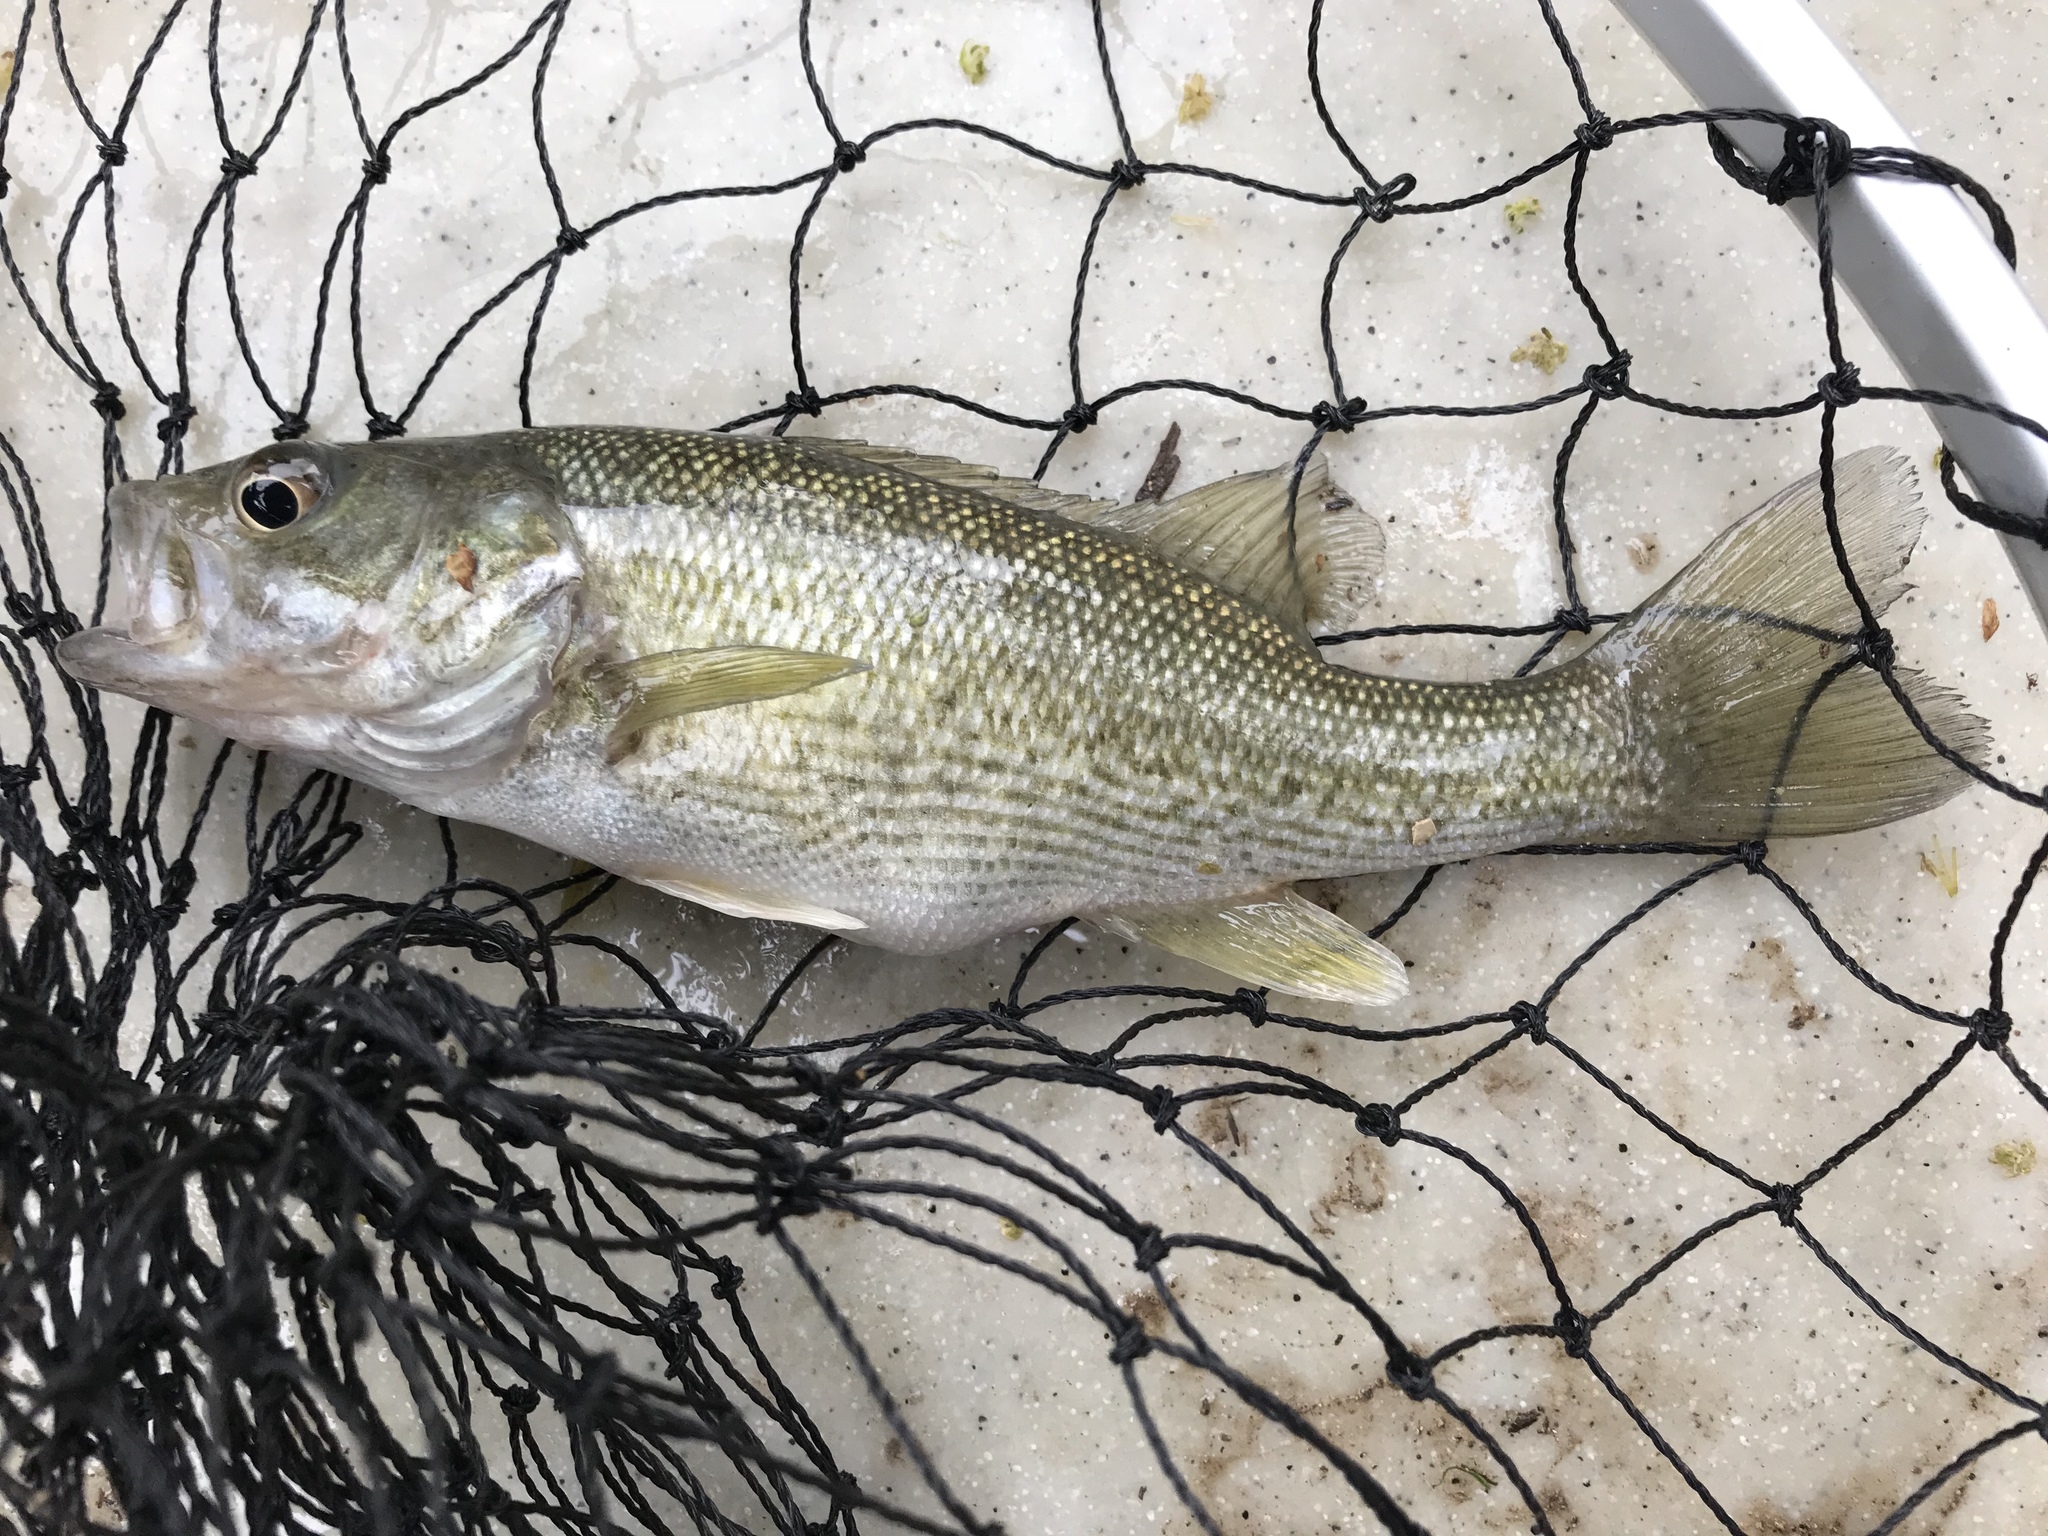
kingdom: Animalia
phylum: Chordata
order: Perciformes
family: Centrarchidae
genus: Micropterus
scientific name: Micropterus treculii
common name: Guadalupe bass
